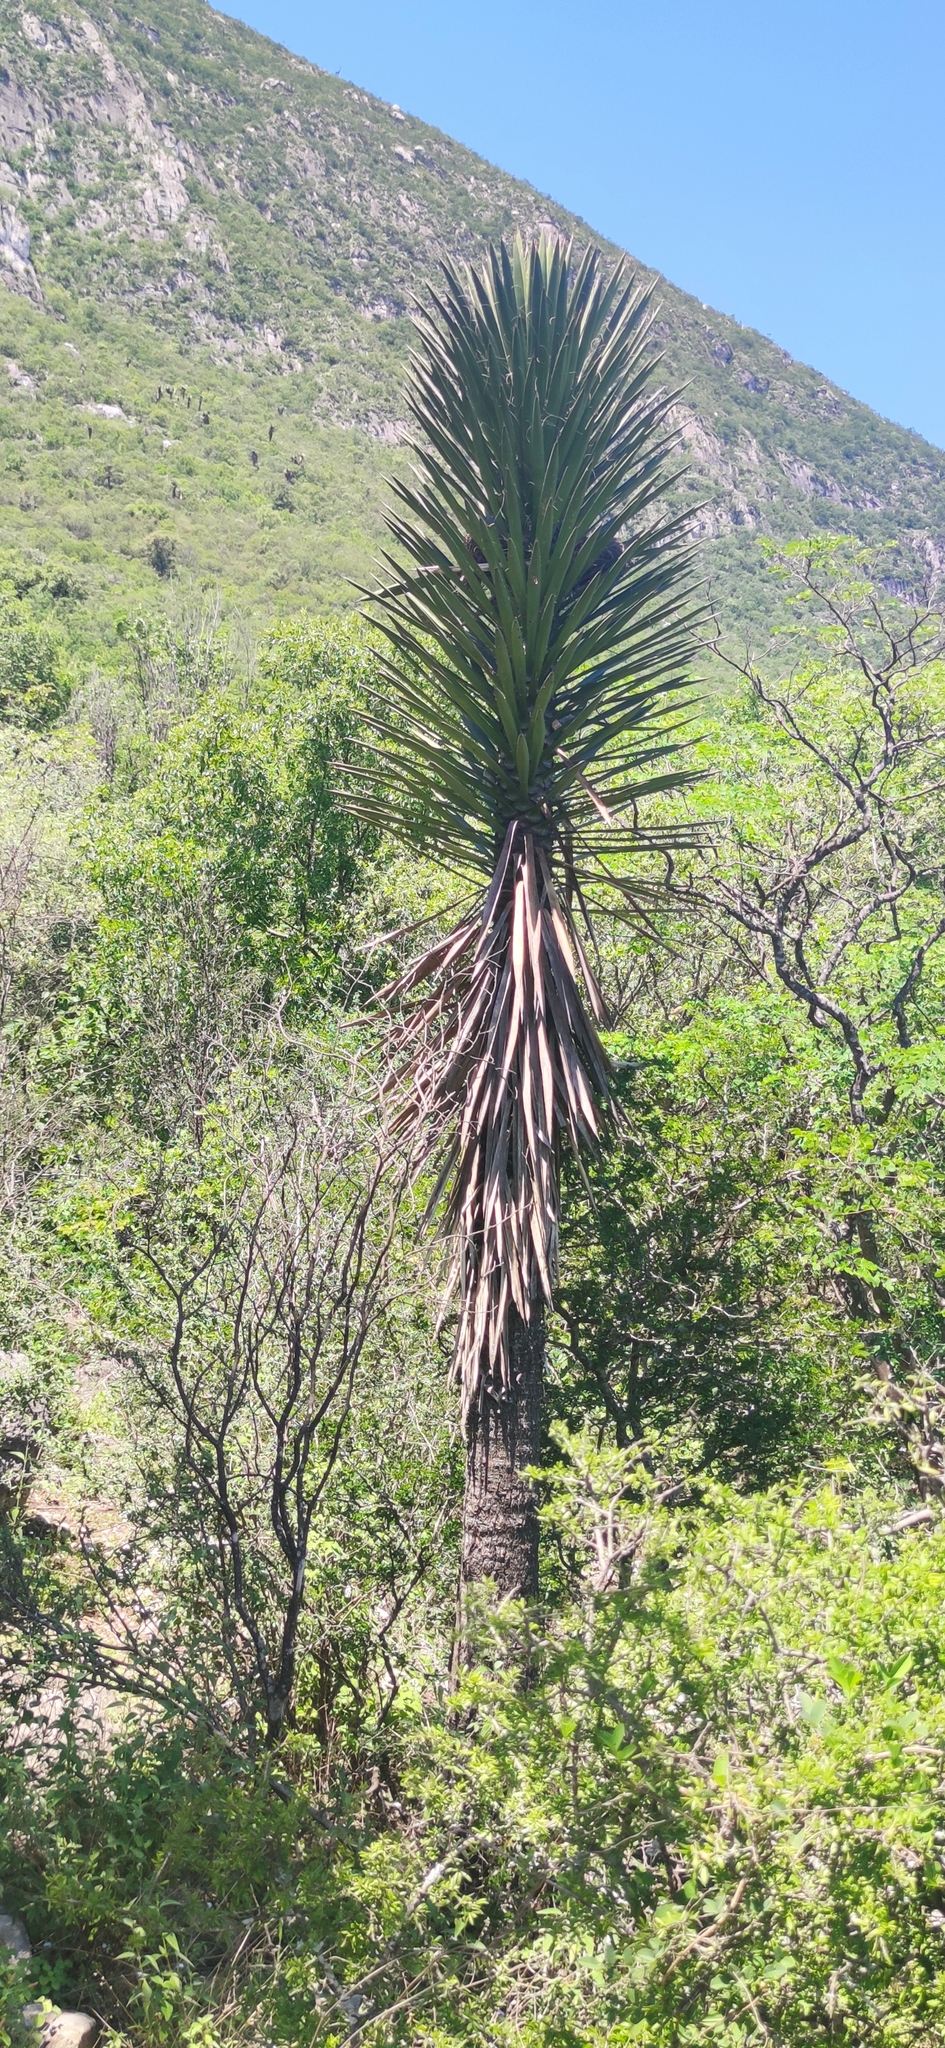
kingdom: Plantae
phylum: Tracheophyta
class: Liliopsida
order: Asparagales
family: Asparagaceae
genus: Yucca
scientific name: Yucca filifera
